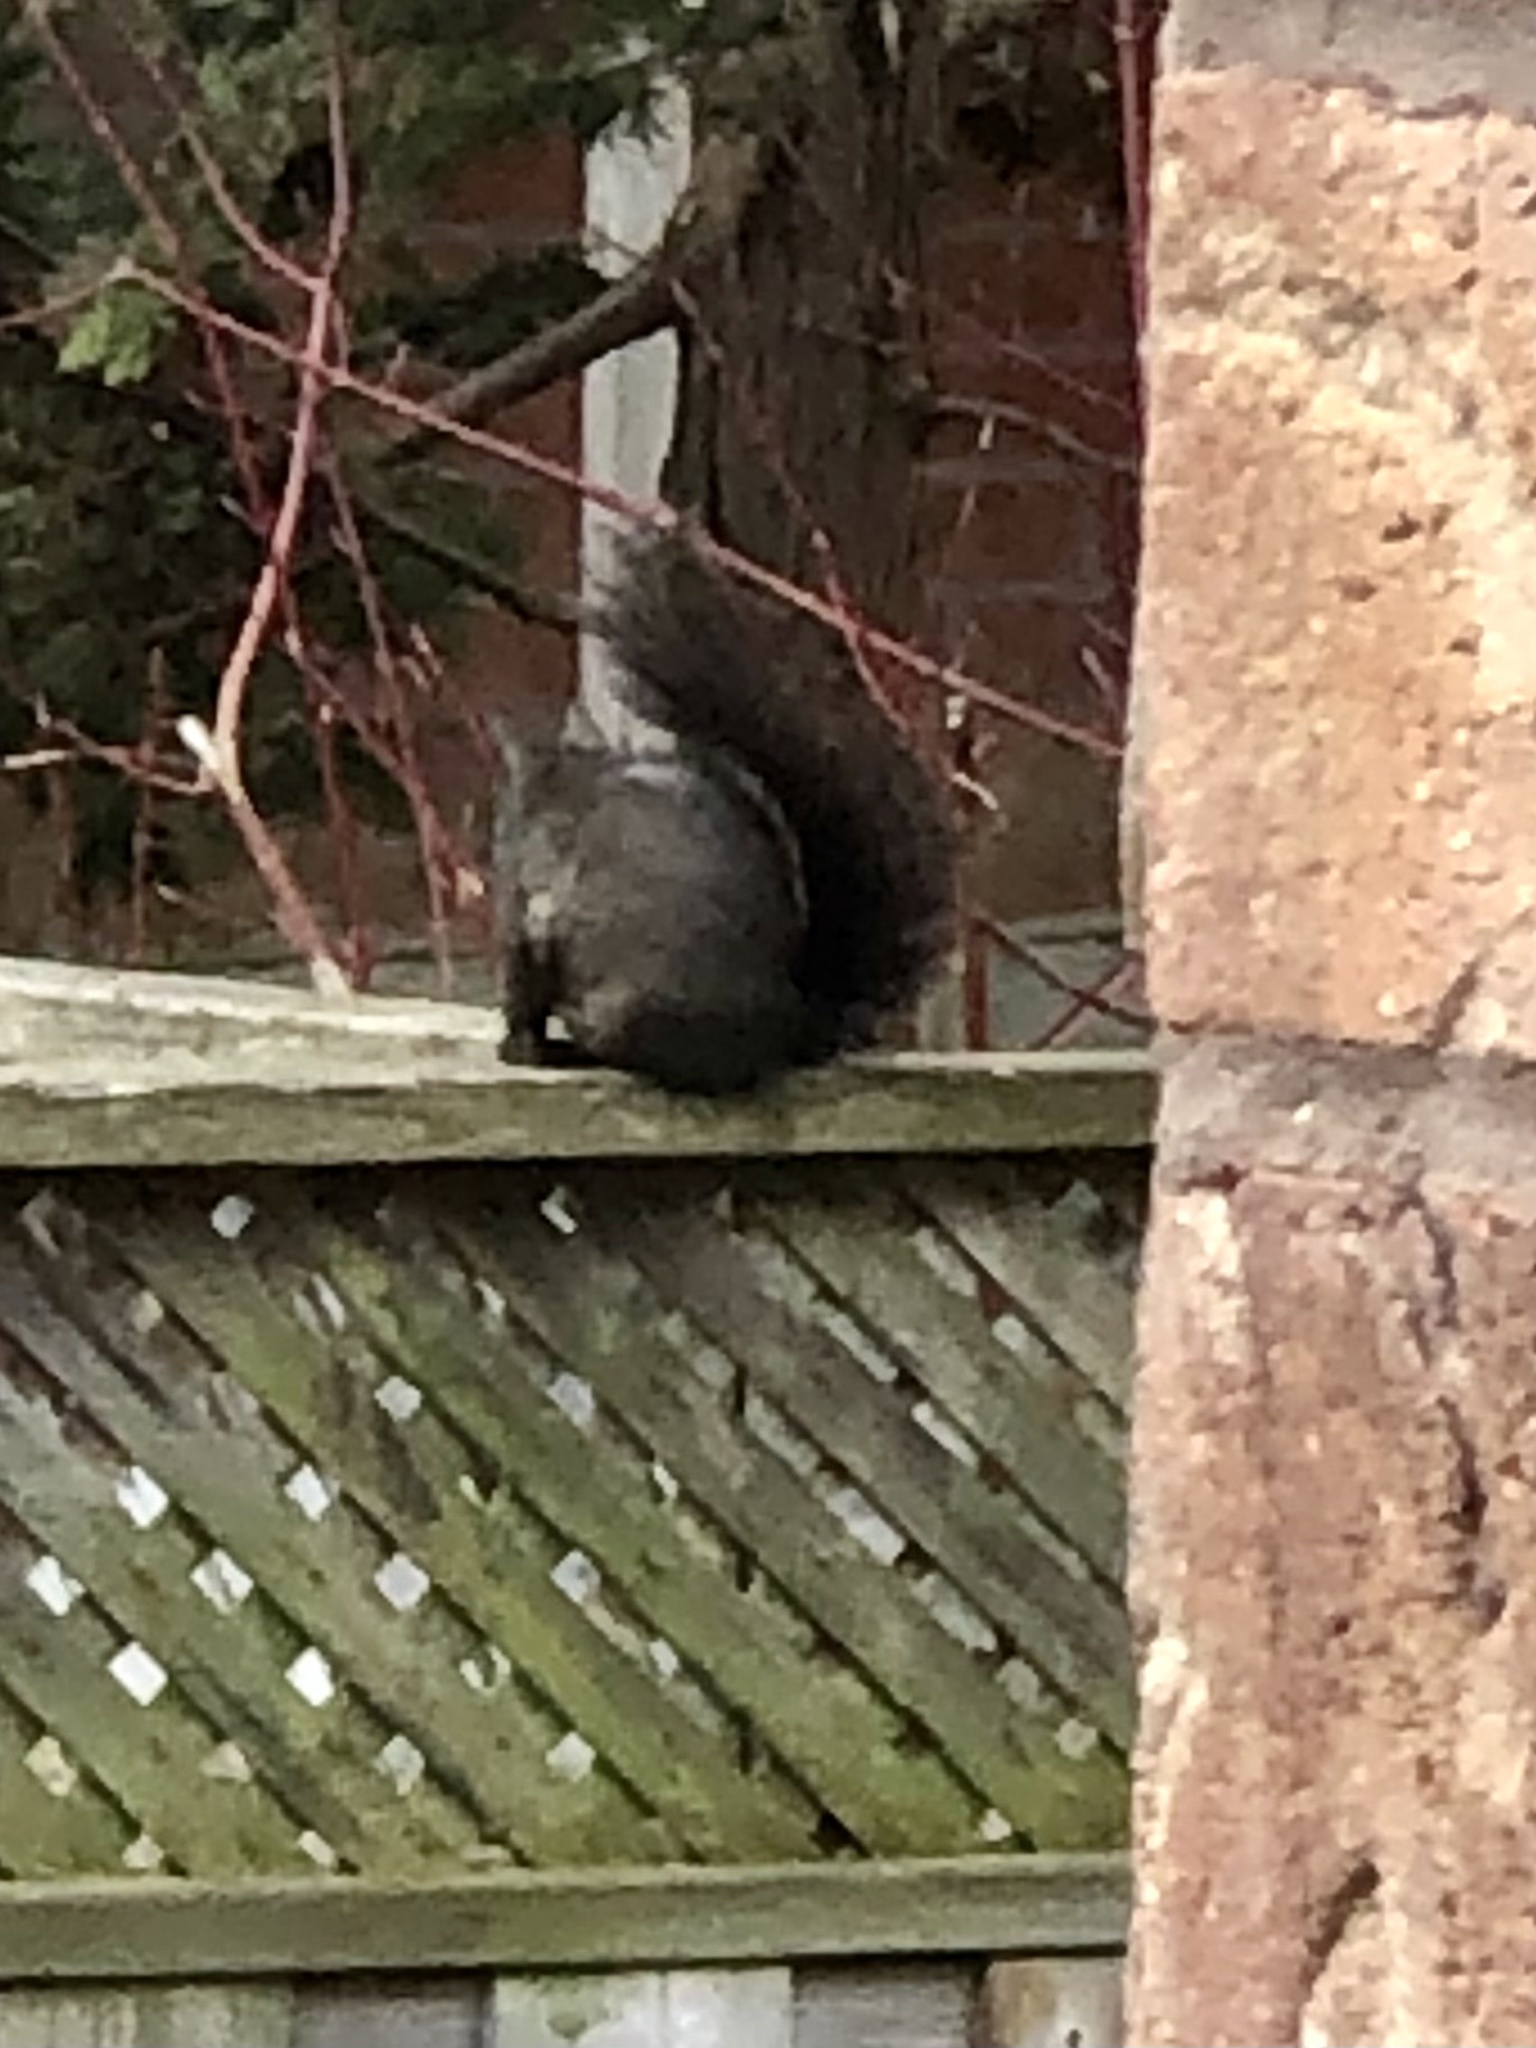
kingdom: Animalia
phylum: Chordata
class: Mammalia
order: Rodentia
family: Sciuridae
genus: Sciurus
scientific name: Sciurus carolinensis
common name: Eastern gray squirrel
